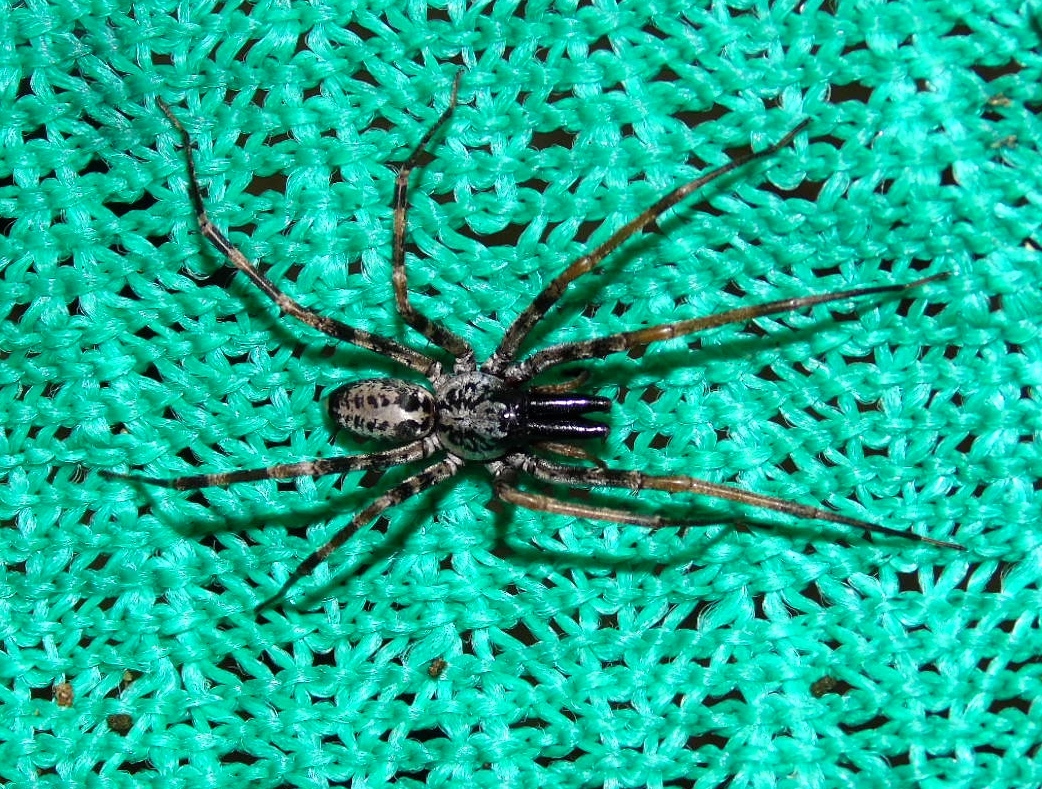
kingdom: Animalia
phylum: Arthropoda
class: Arachnida
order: Araneae
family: Corinnidae
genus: Megalostrata
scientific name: Megalostrata
